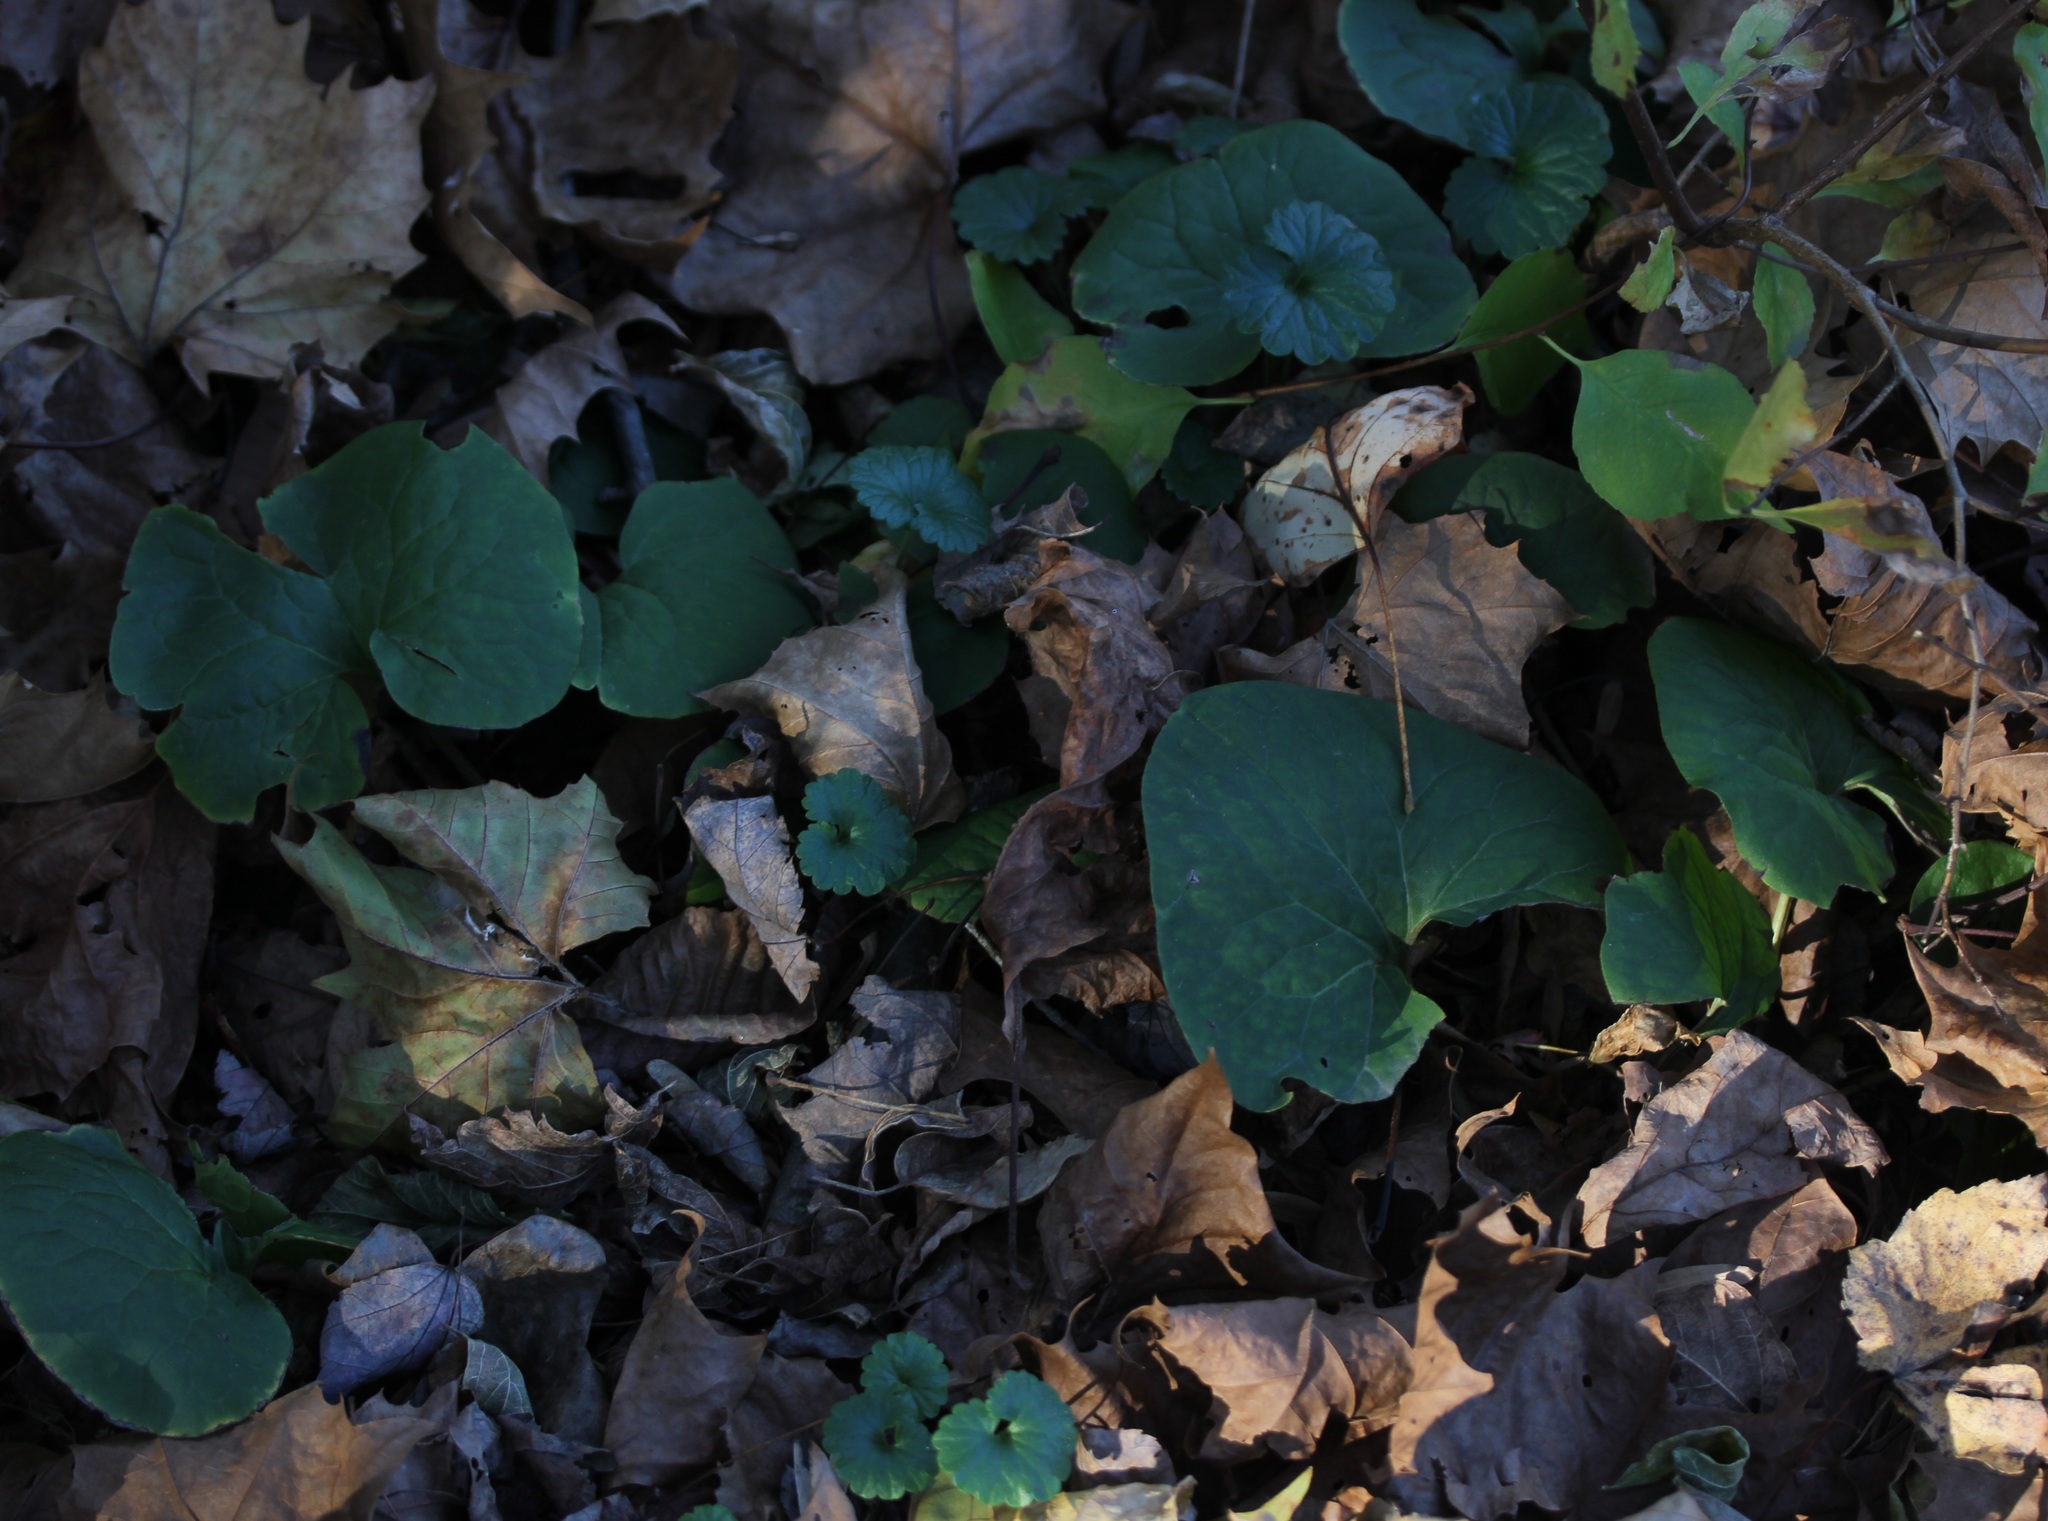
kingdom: Plantae
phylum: Tracheophyta
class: Magnoliopsida
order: Piperales
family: Aristolochiaceae
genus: Asarum
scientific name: Asarum canadense
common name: Wild ginger
